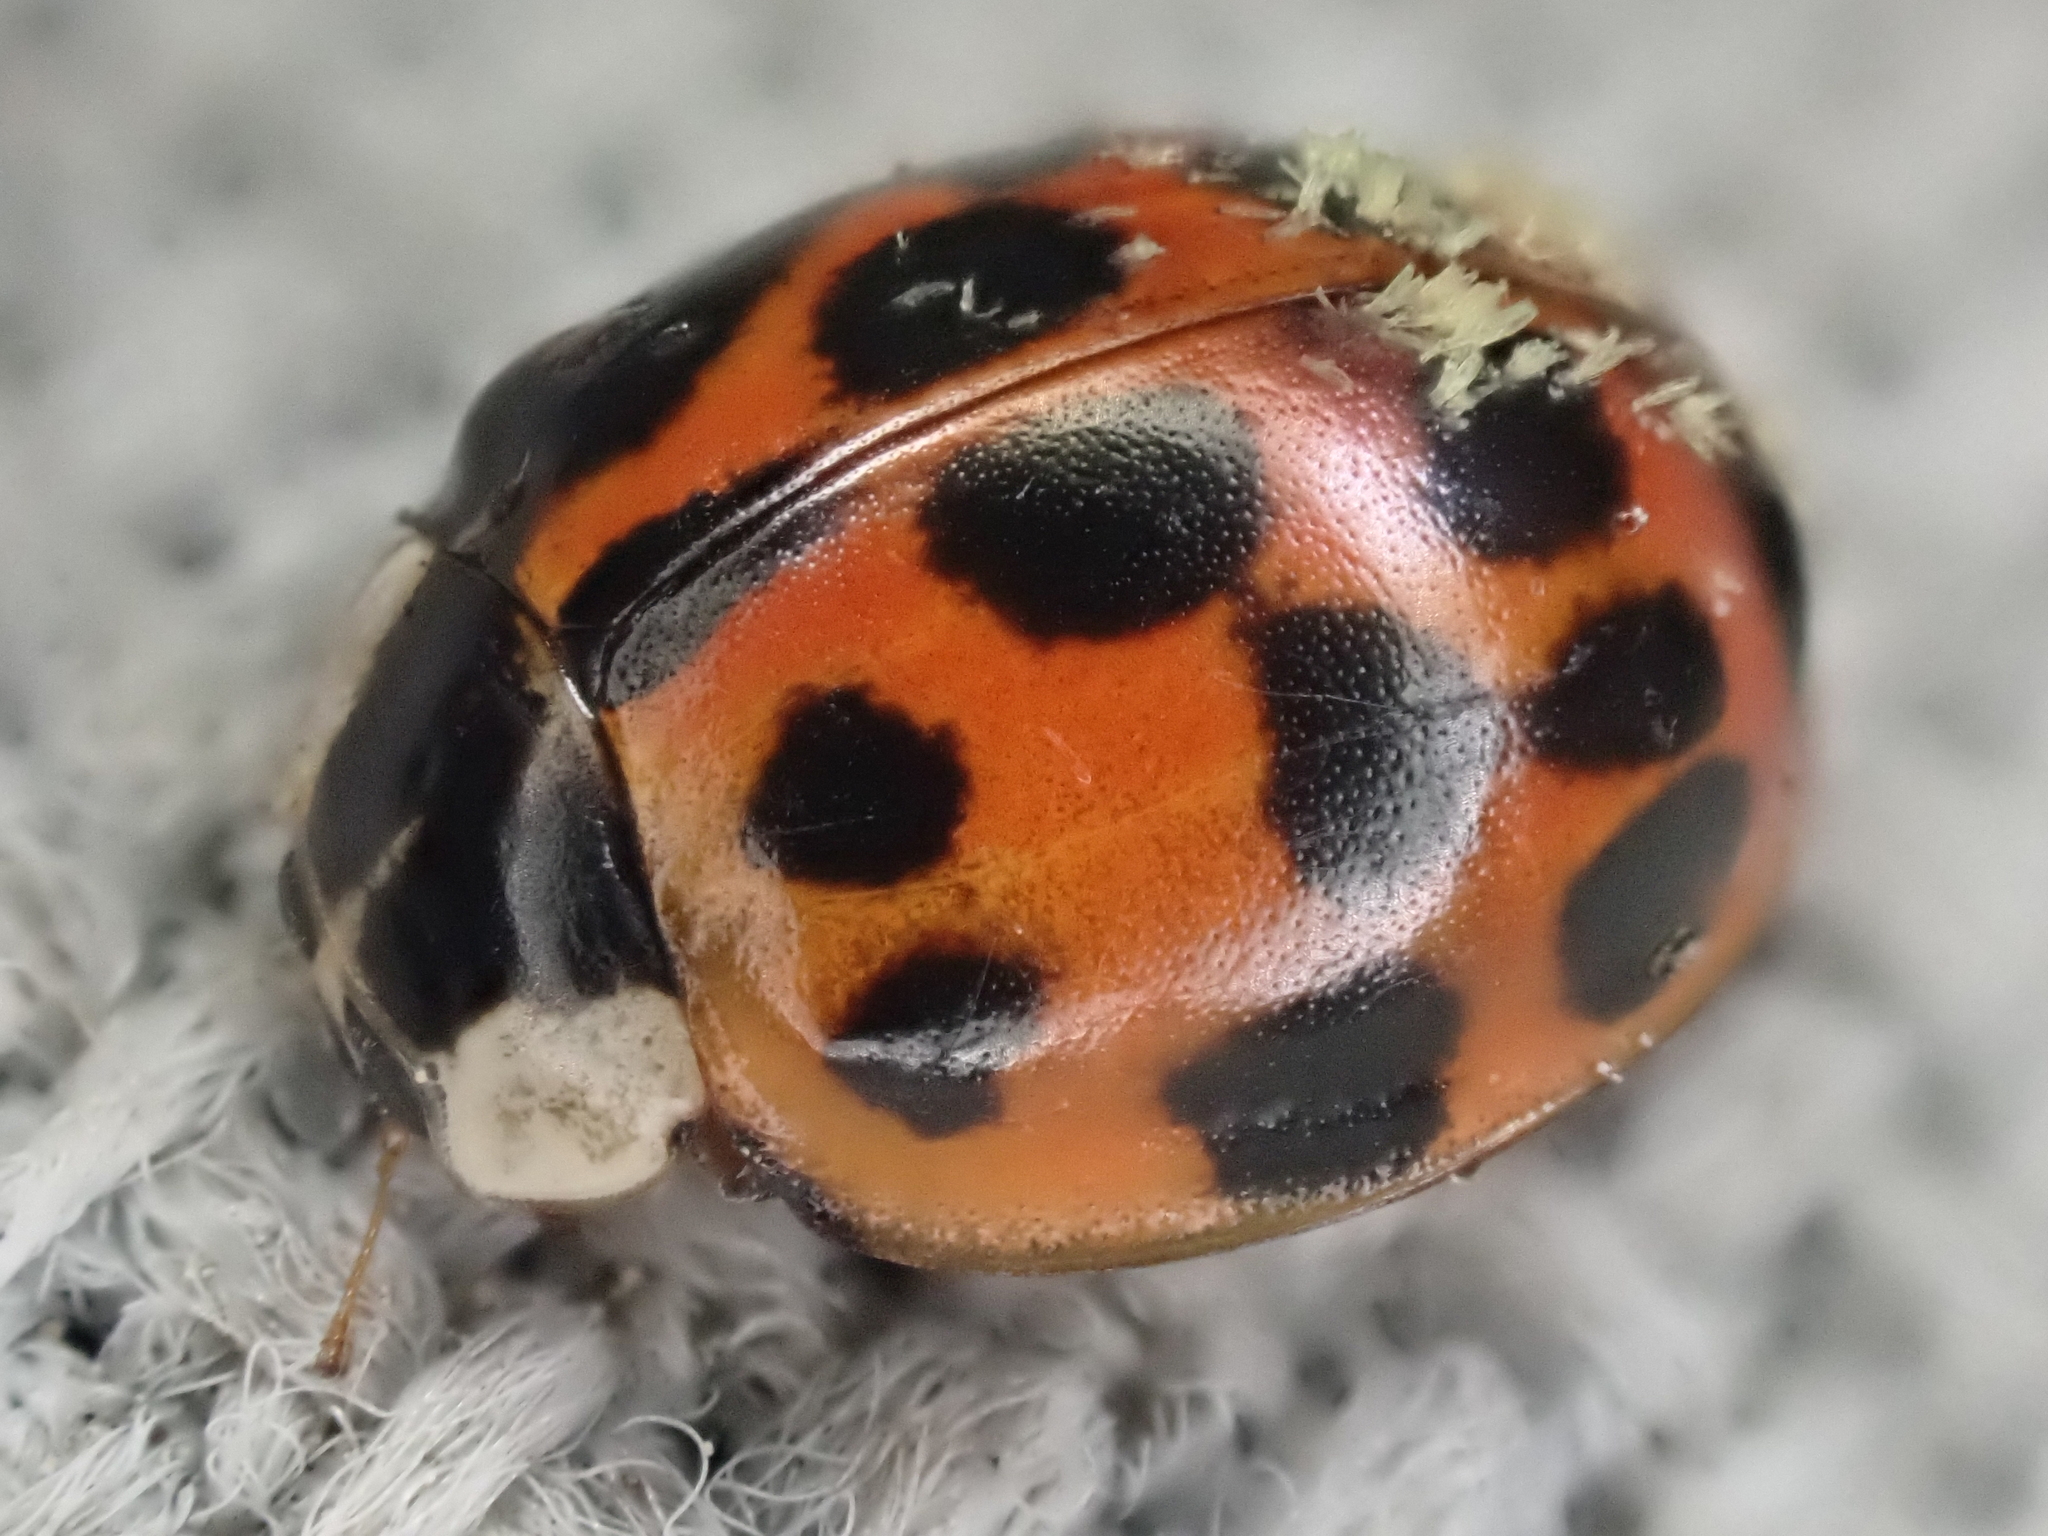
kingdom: Animalia
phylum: Arthropoda
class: Insecta
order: Coleoptera
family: Coccinellidae
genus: Harmonia
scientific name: Harmonia axyridis
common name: Harlequin ladybird
